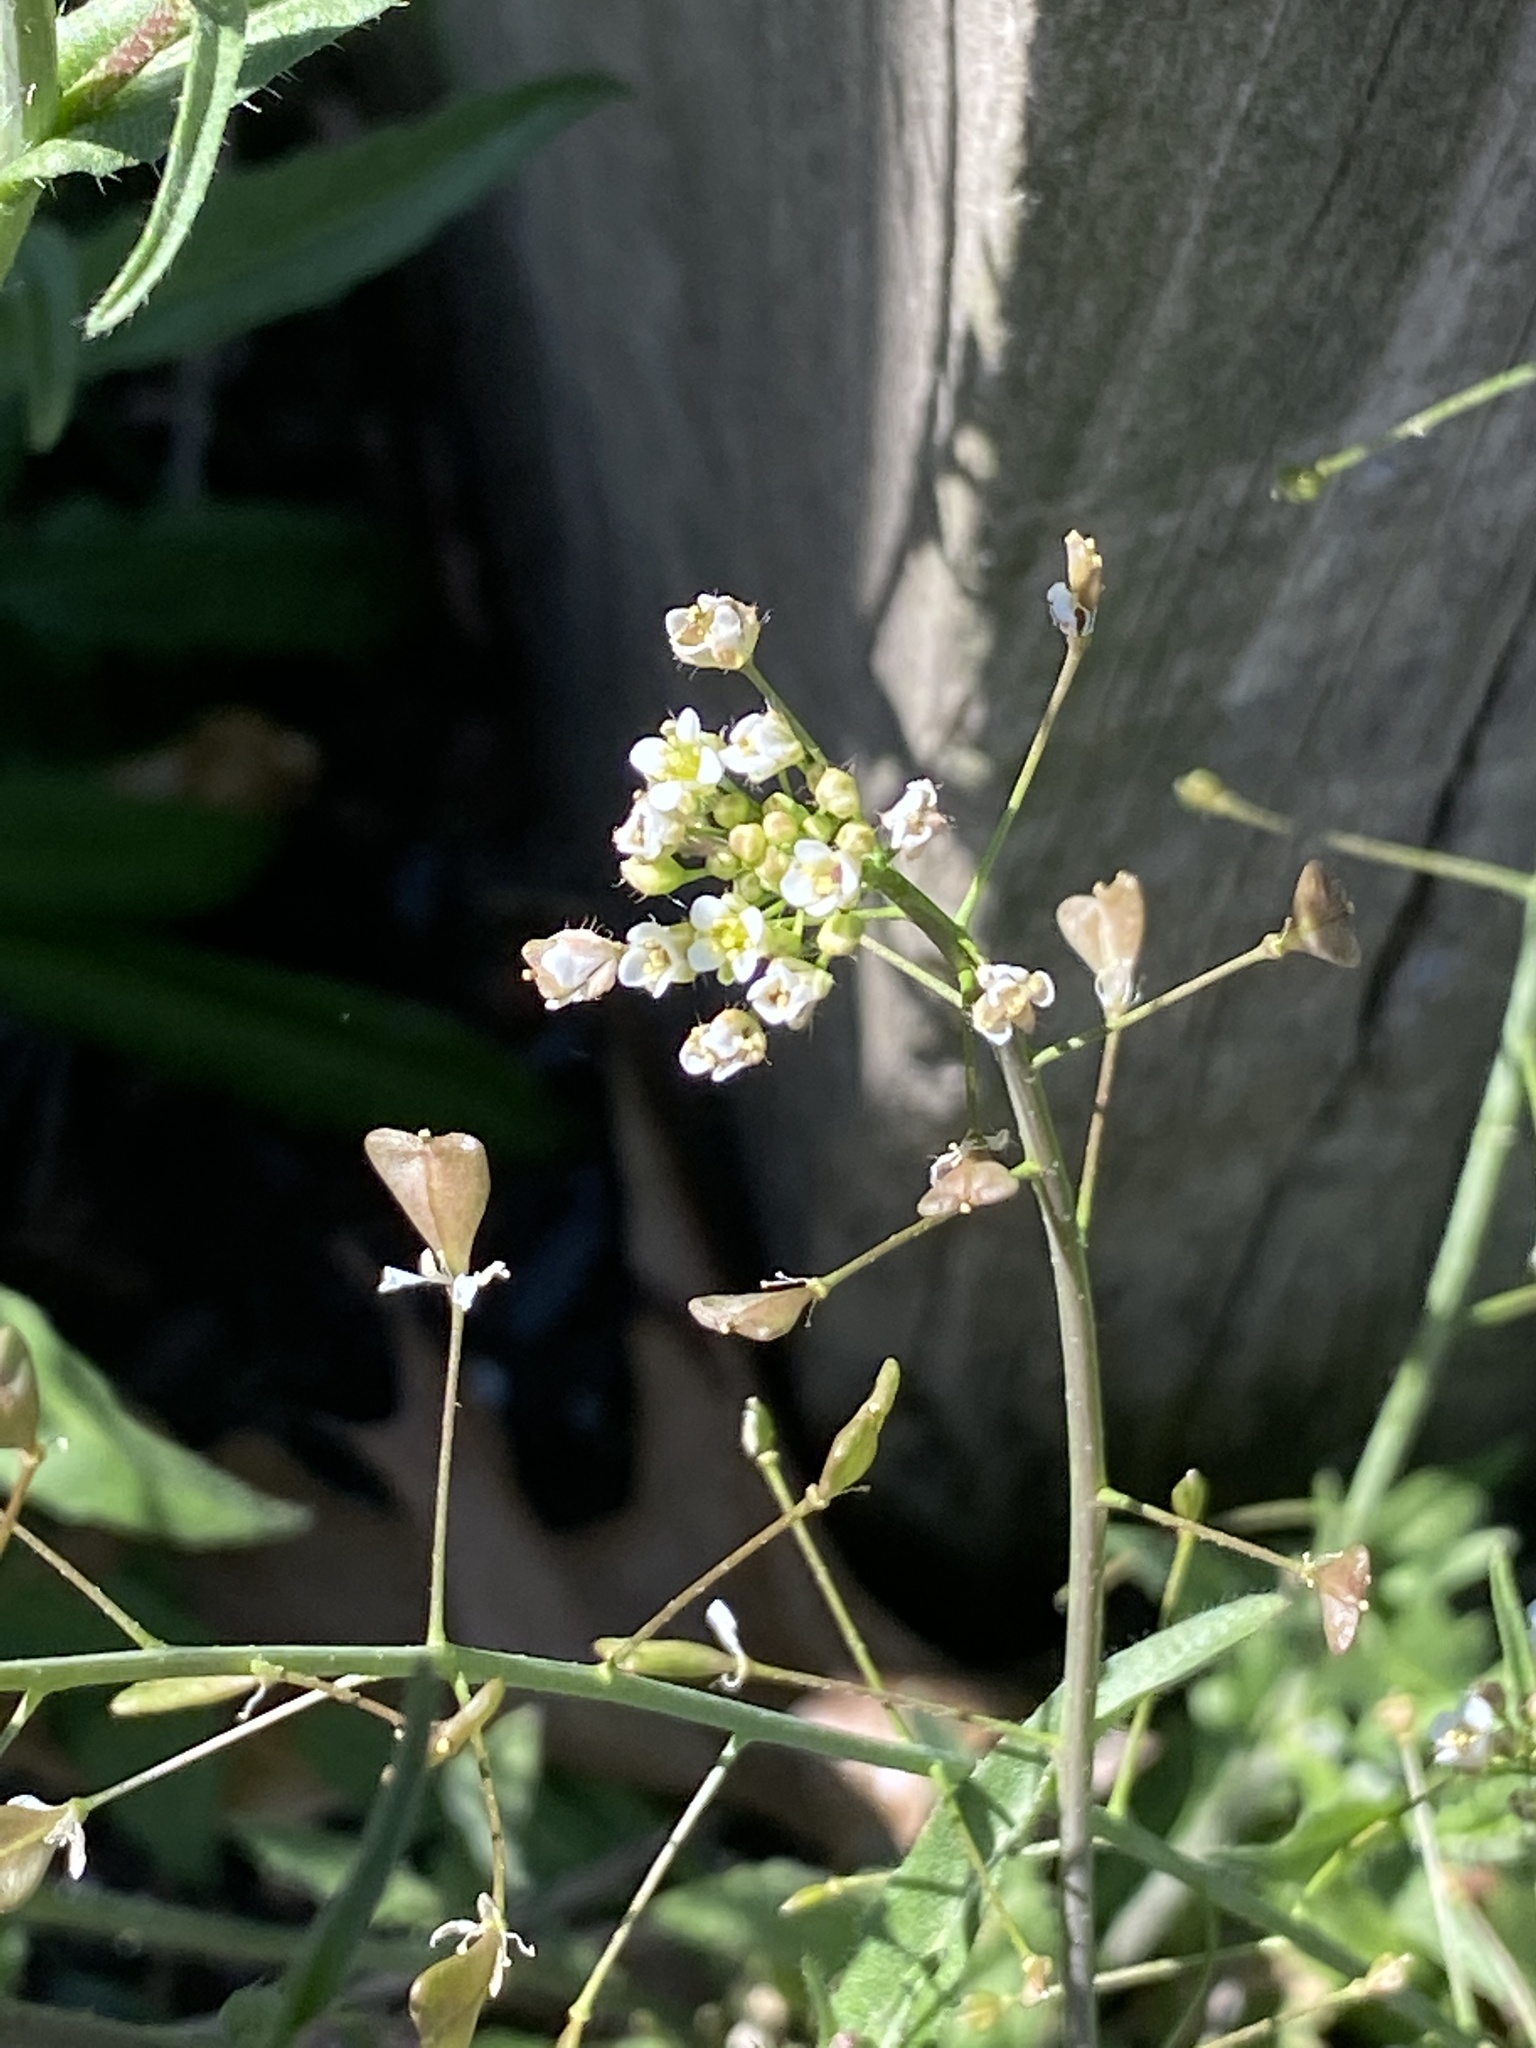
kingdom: Plantae
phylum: Tracheophyta
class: Magnoliopsida
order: Brassicales
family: Brassicaceae
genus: Capsella
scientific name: Capsella bursa-pastoris
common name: Shepherd's purse
